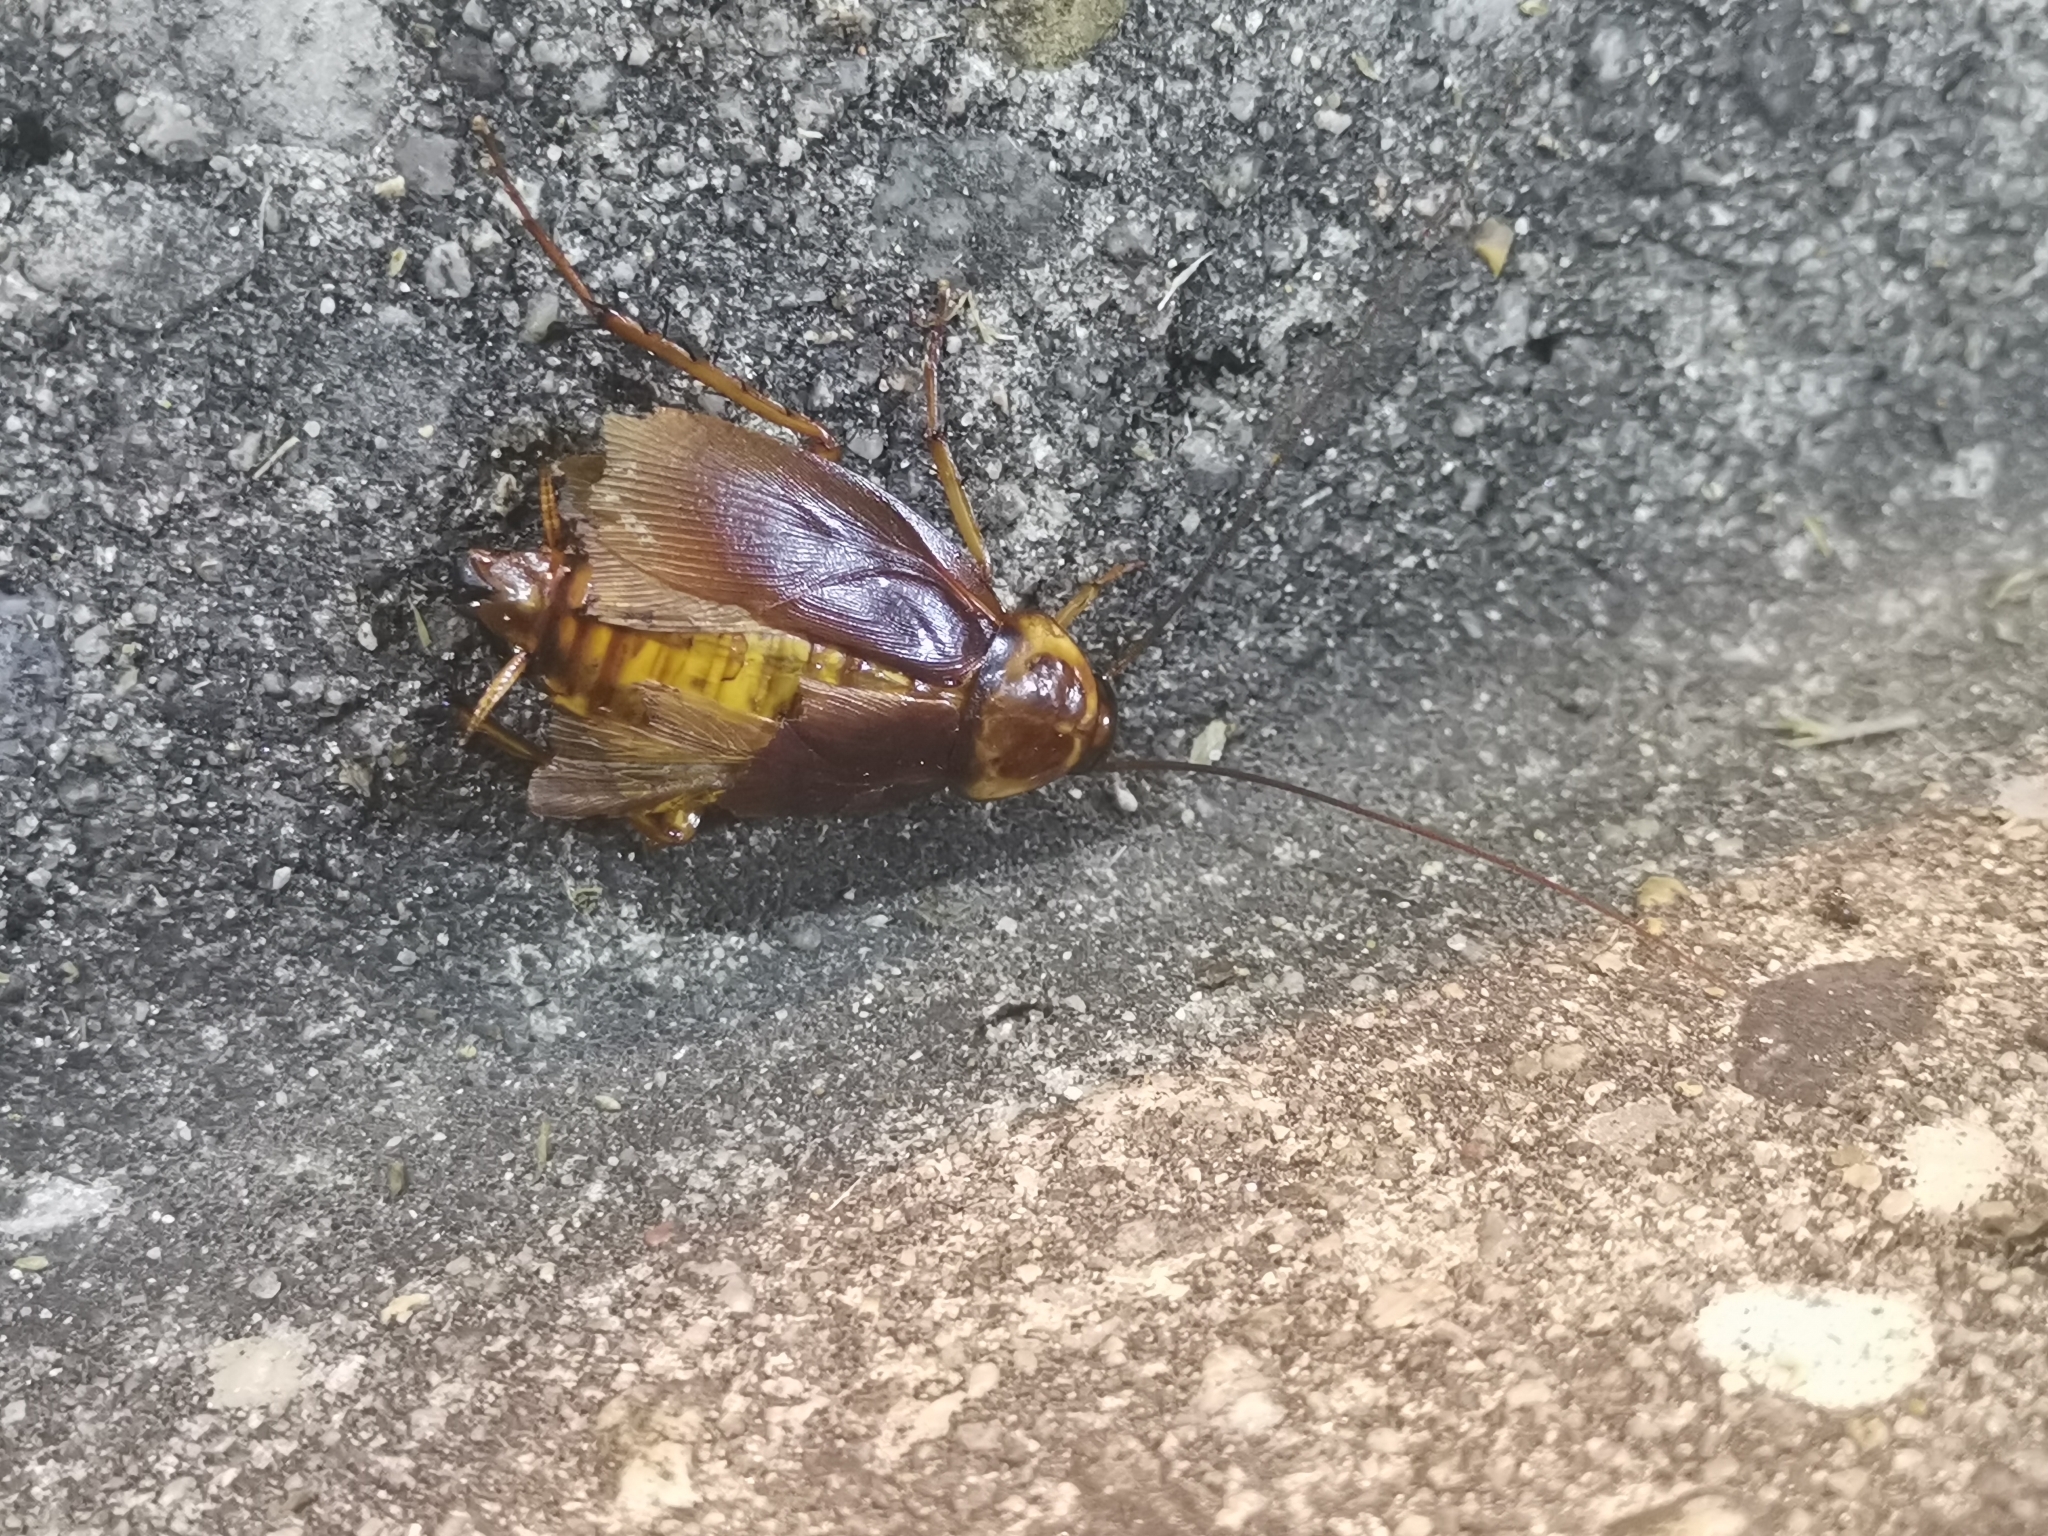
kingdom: Animalia
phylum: Arthropoda
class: Insecta
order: Blattodea
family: Blattidae
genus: Periplaneta
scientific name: Periplaneta americana
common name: American cockroach
